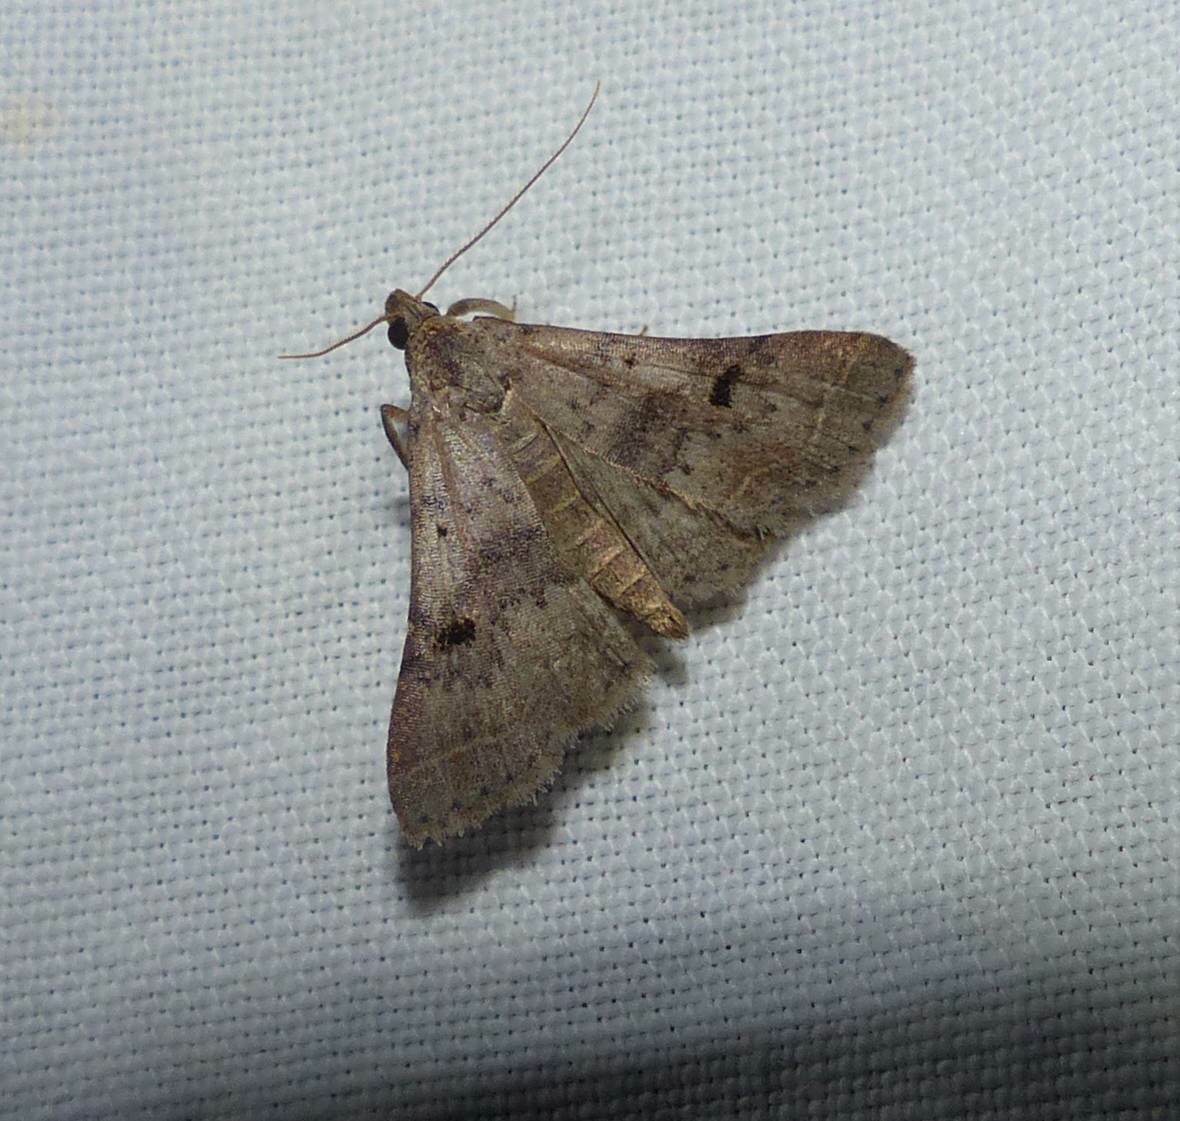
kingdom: Animalia
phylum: Arthropoda
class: Insecta
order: Lepidoptera
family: Erebidae
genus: Bleptina
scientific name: Bleptina caradrinalis
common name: Bent-winged owlet
